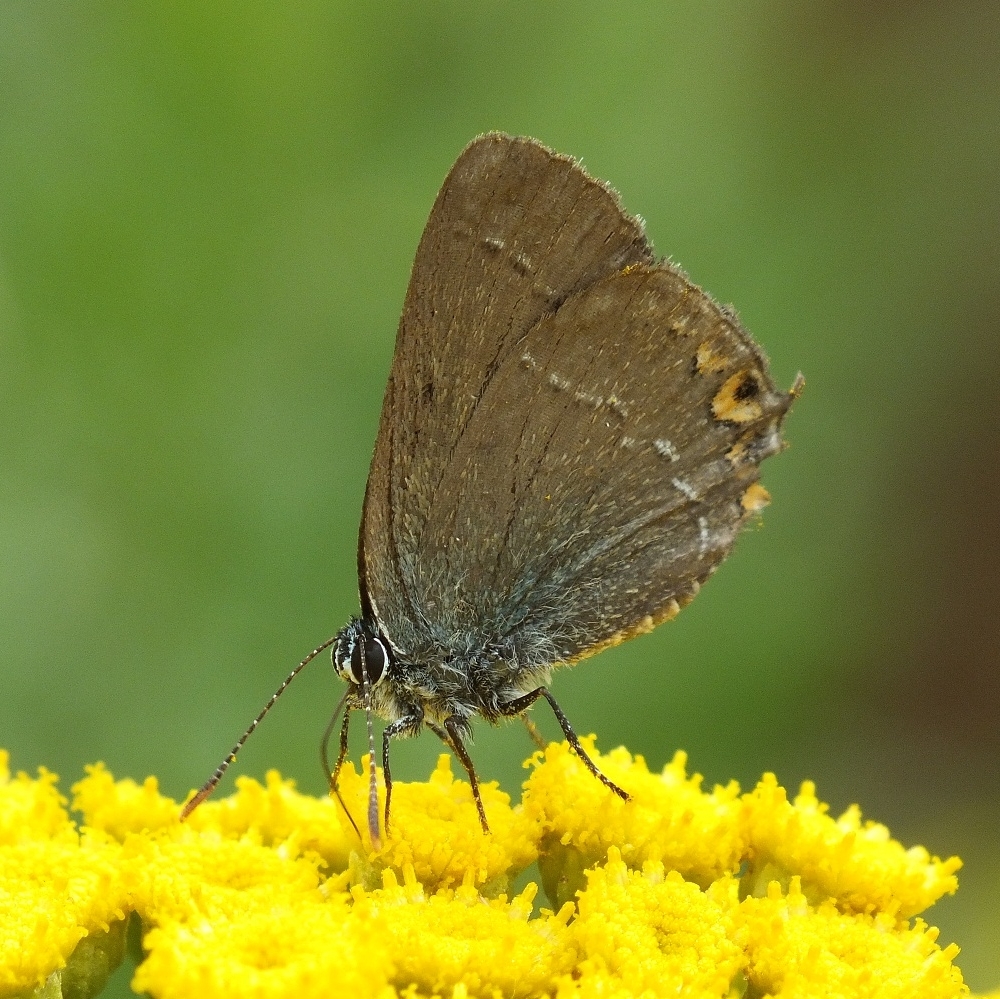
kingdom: Animalia
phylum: Arthropoda
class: Insecta
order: Lepidoptera
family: Lycaenidae
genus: Strymon
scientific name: Strymon acaciae
